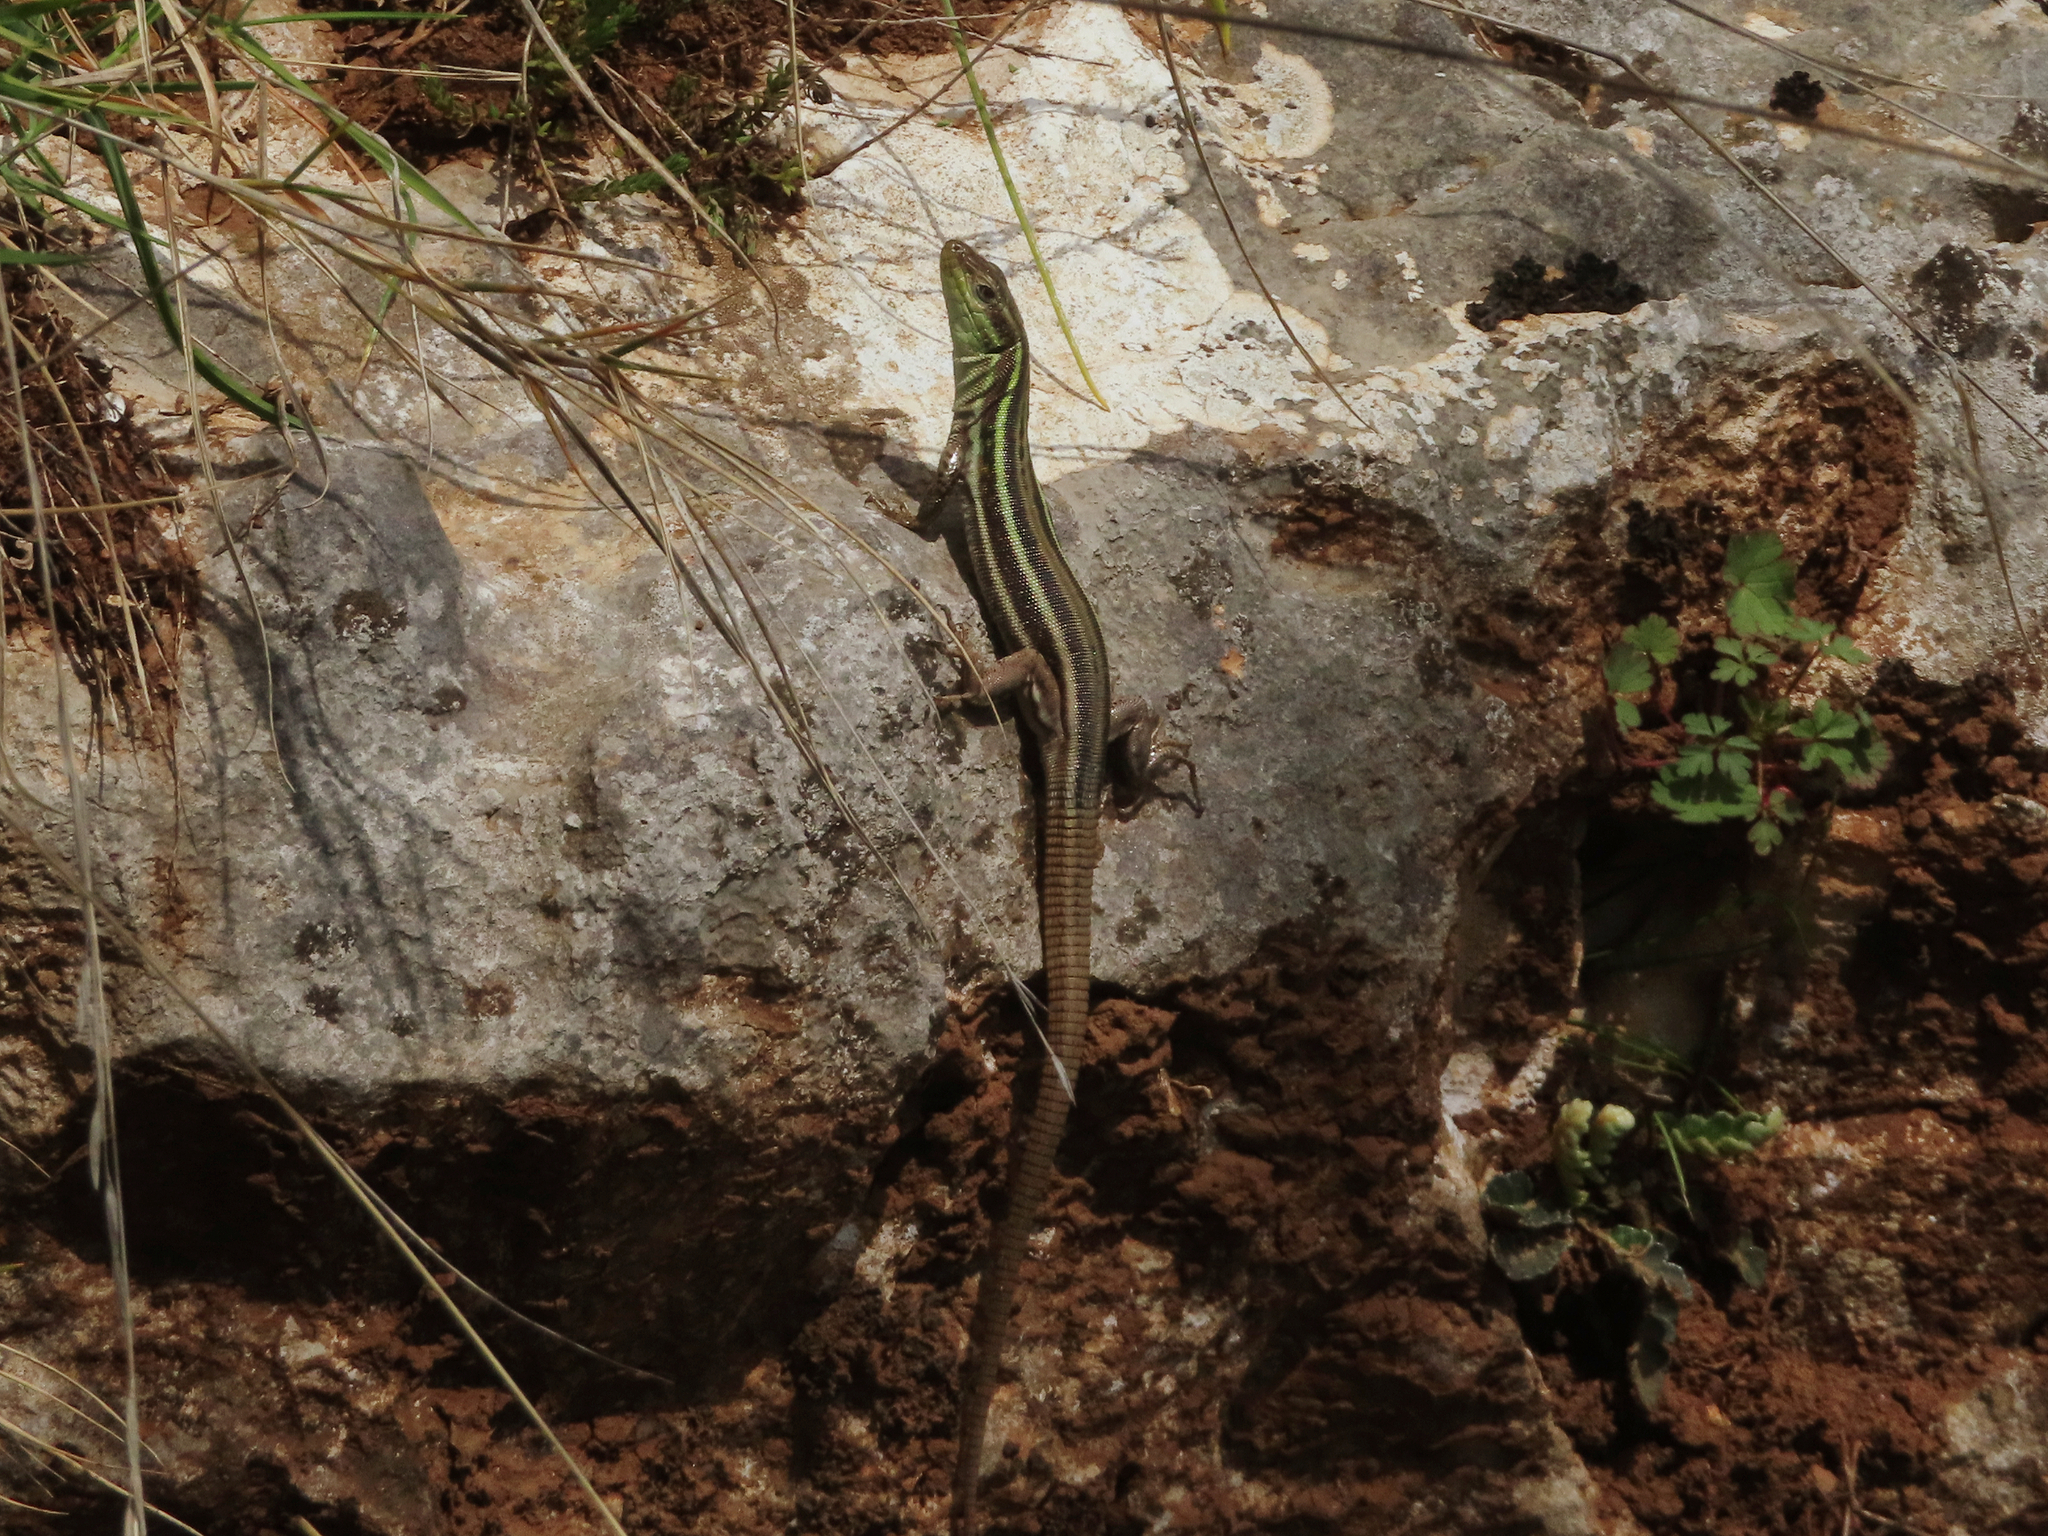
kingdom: Animalia
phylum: Chordata
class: Squamata
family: Lacertidae
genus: Podarcis
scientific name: Podarcis peloponnesiacus
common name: Peloponnese wall lizard
